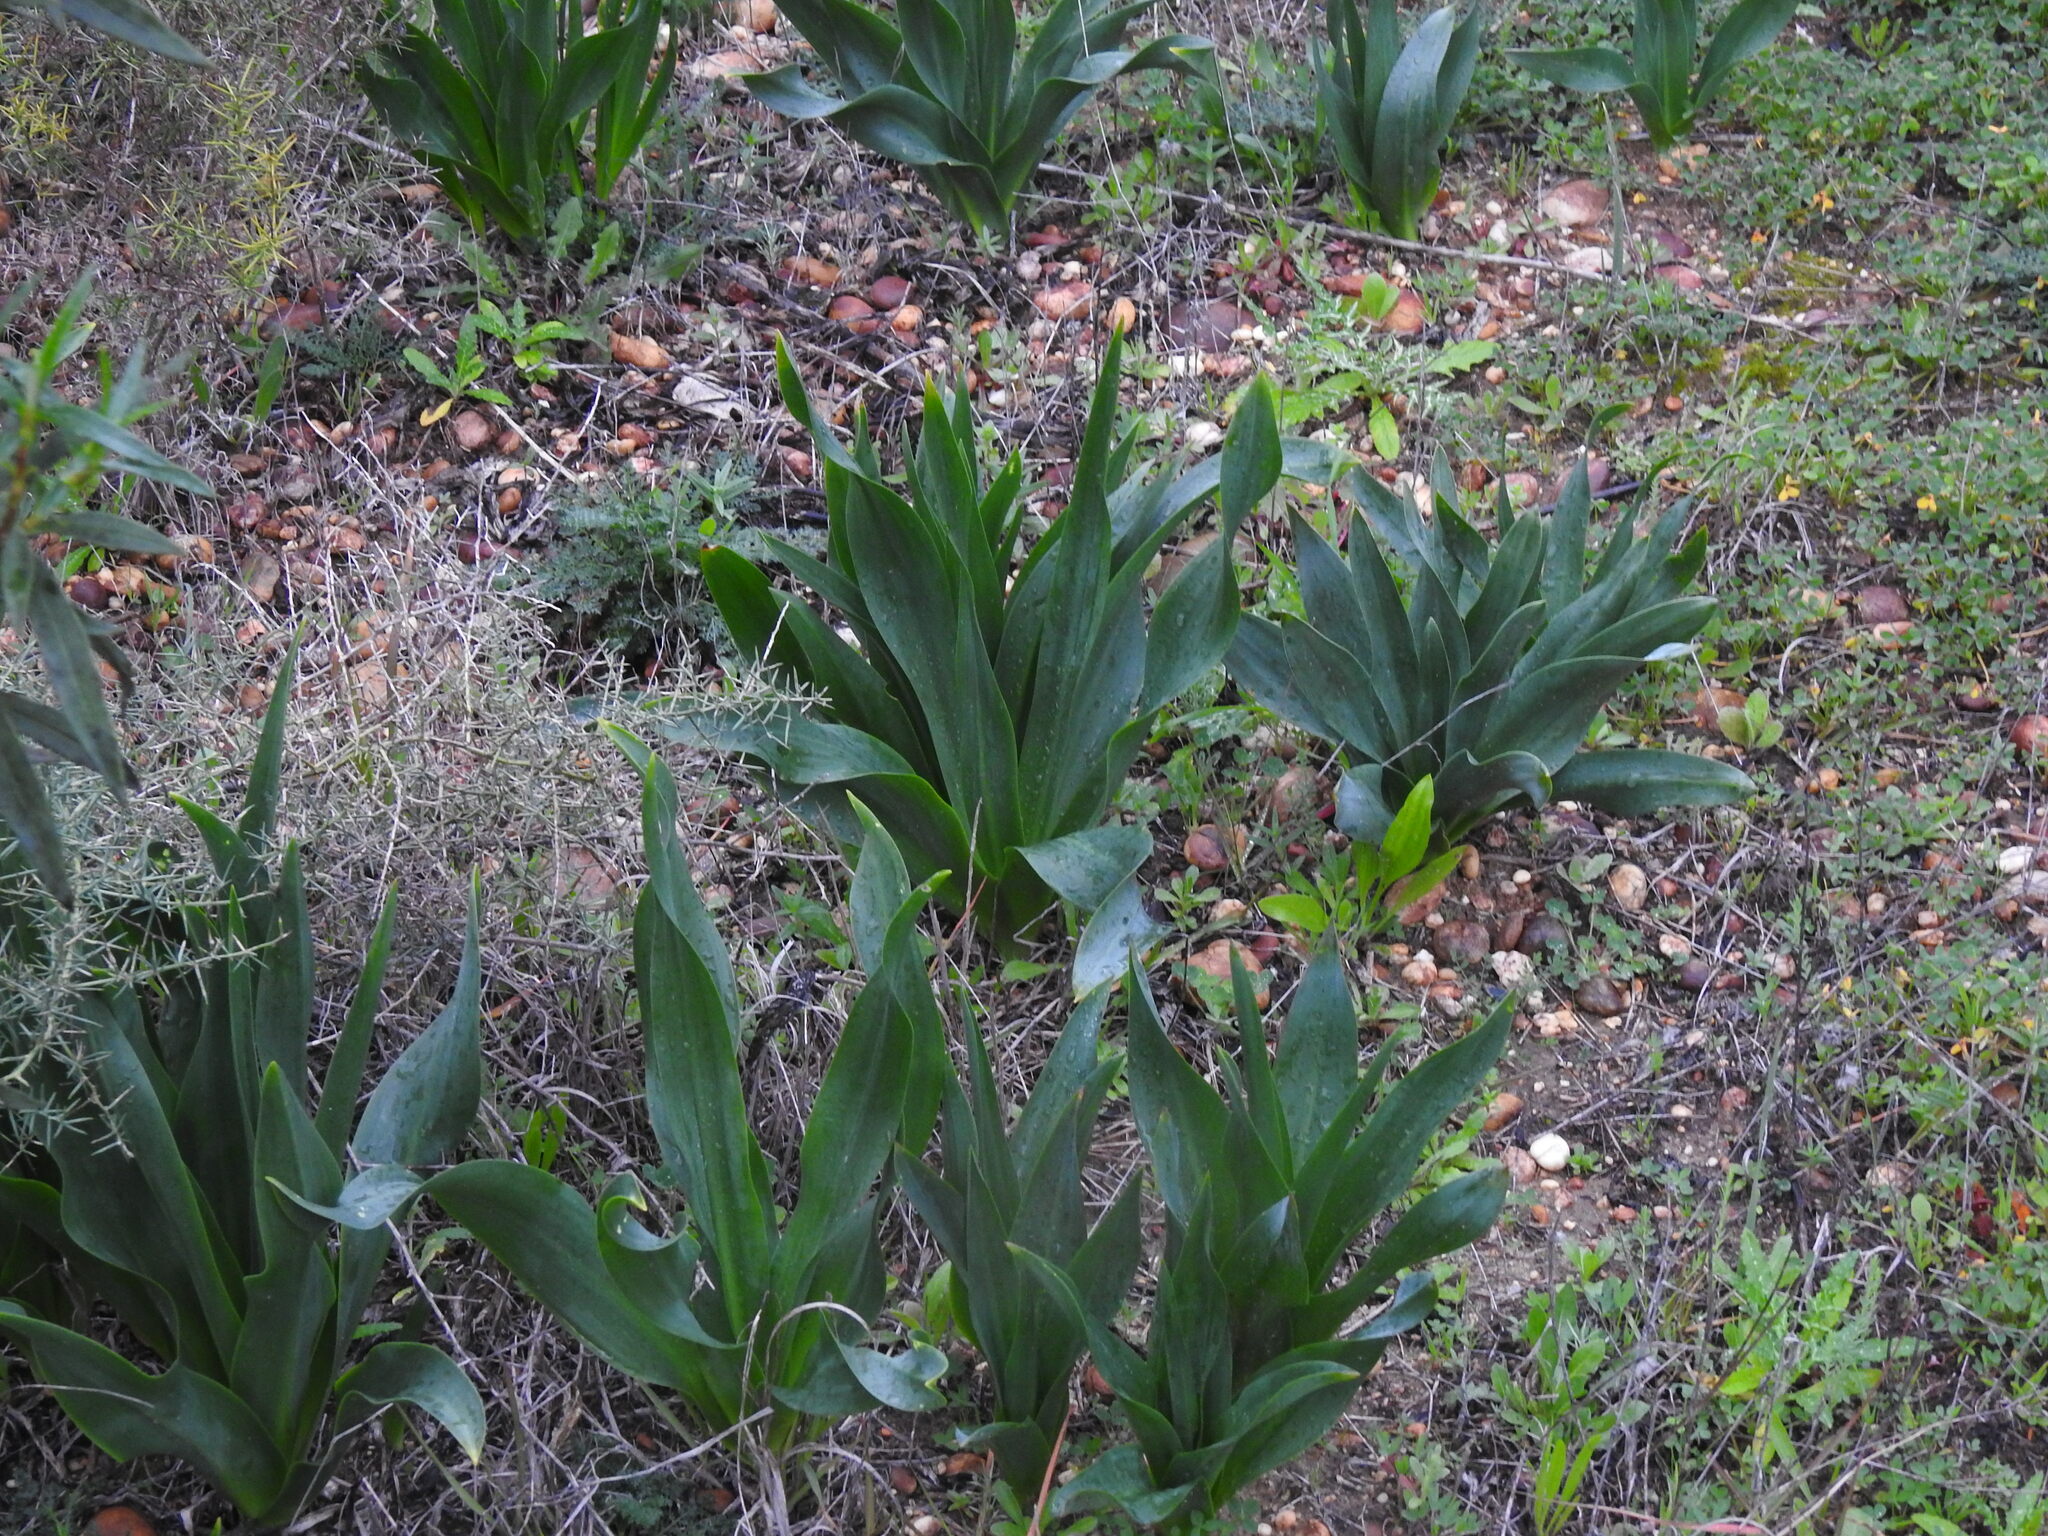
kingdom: Plantae
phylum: Tracheophyta
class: Liliopsida
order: Asparagales
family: Asparagaceae
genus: Drimia
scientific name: Drimia maritima
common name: Maritime squill
